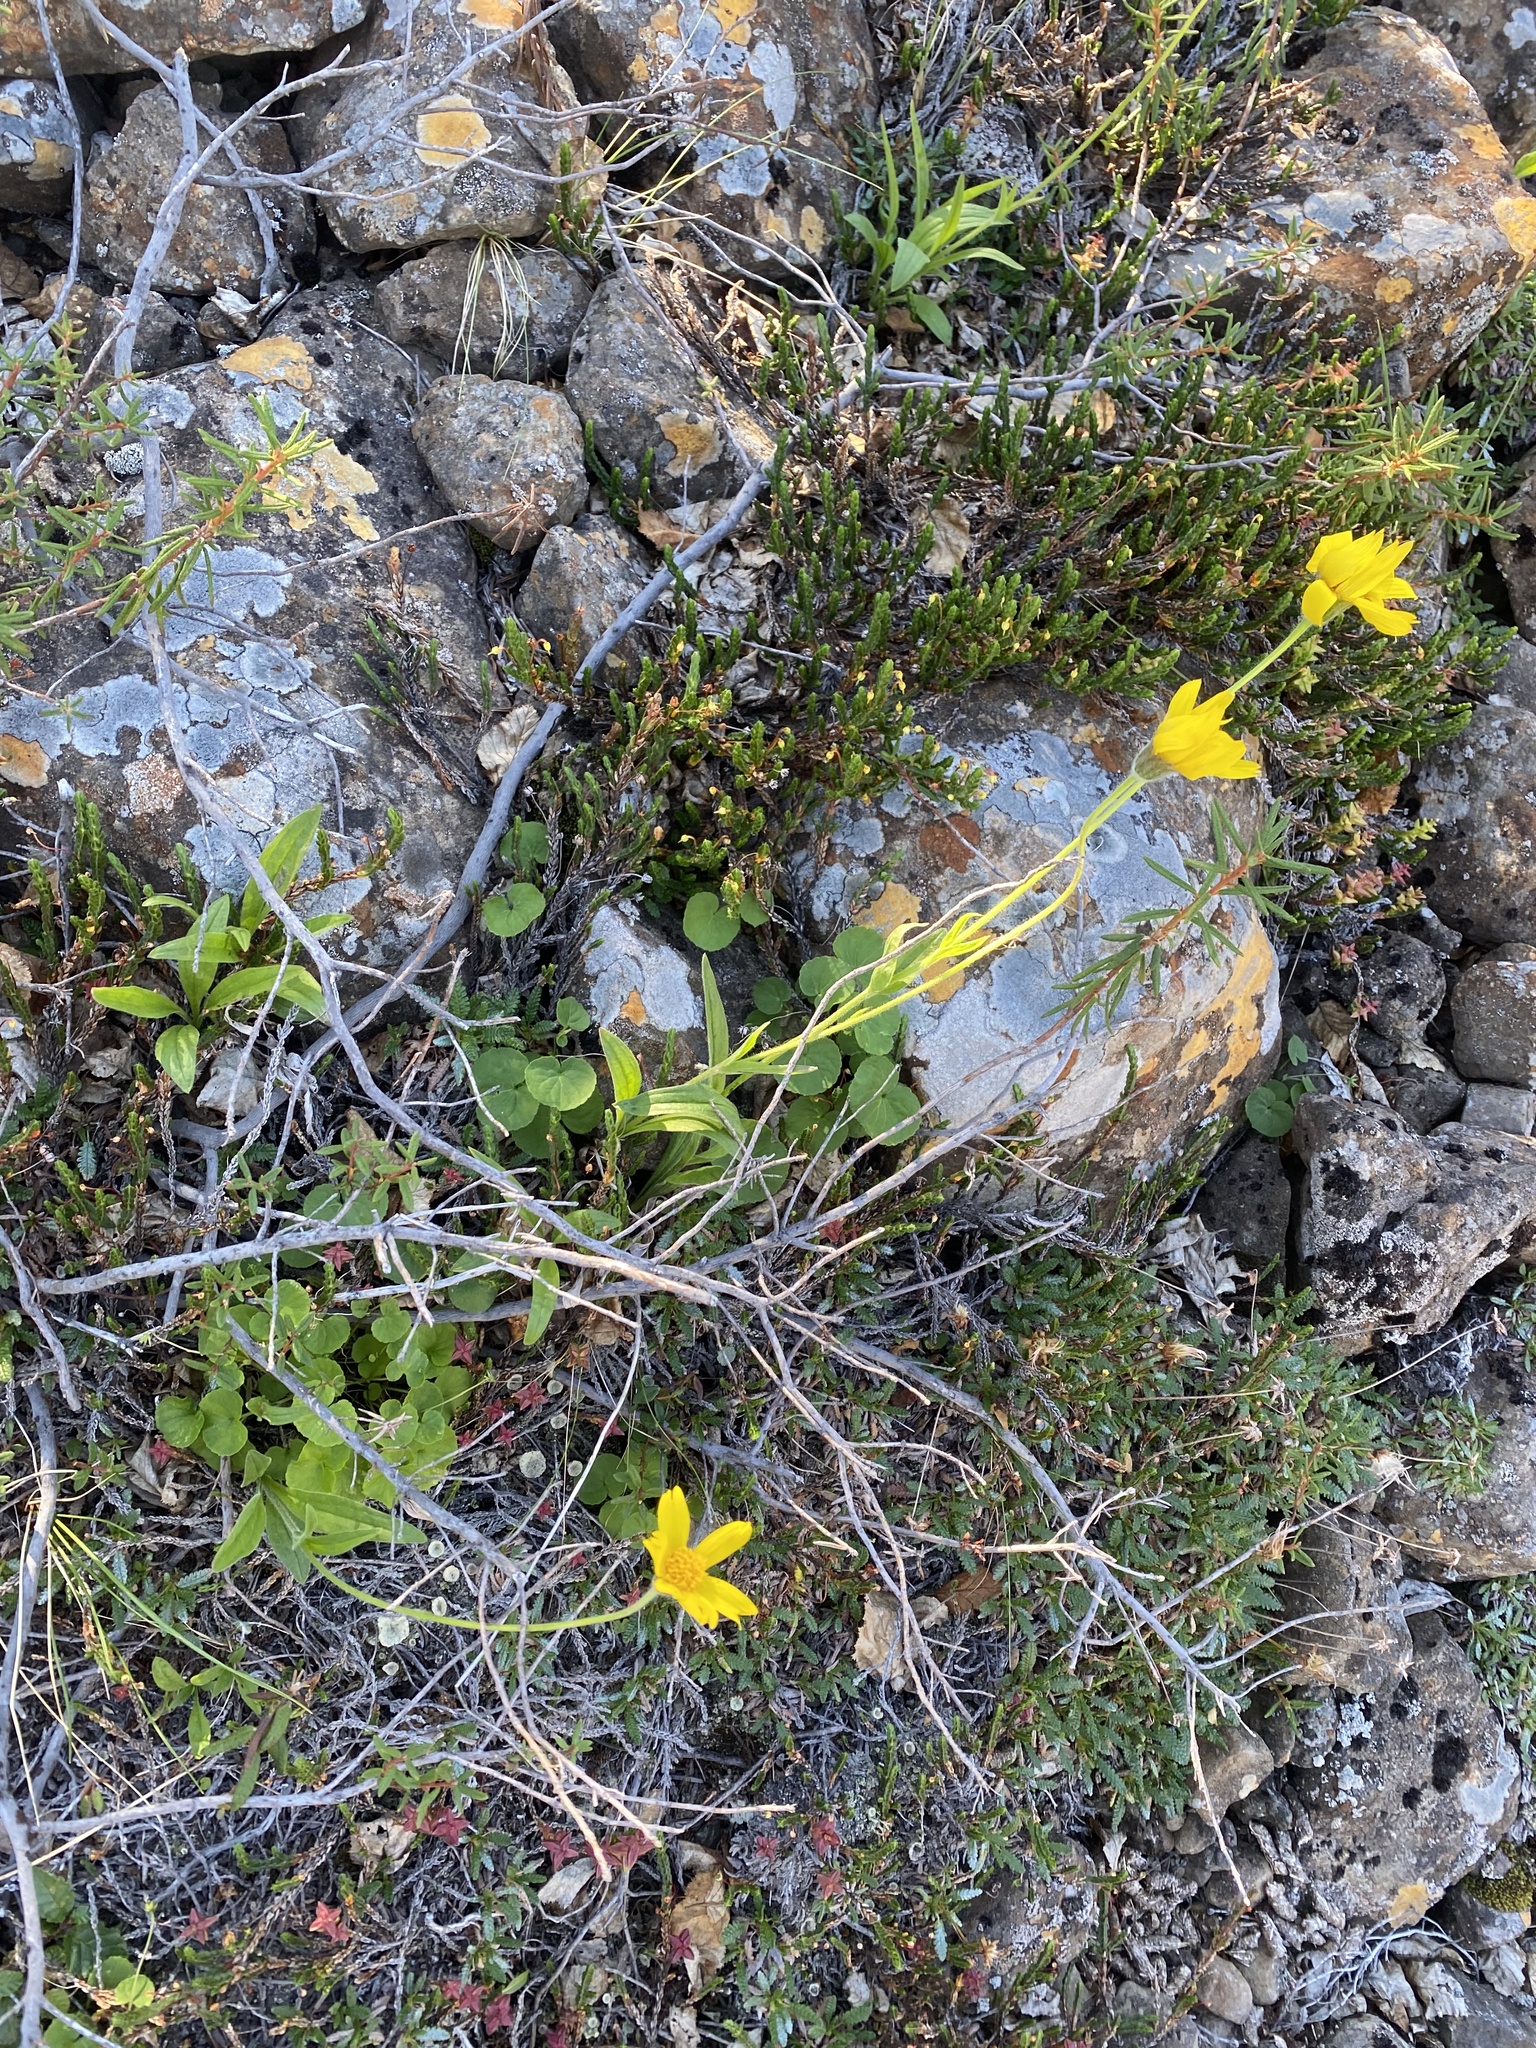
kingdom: Plantae
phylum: Tracheophyta
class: Magnoliopsida
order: Asterales
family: Asteraceae
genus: Arnica
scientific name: Arnica angustifolia
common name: Arctic arnica
